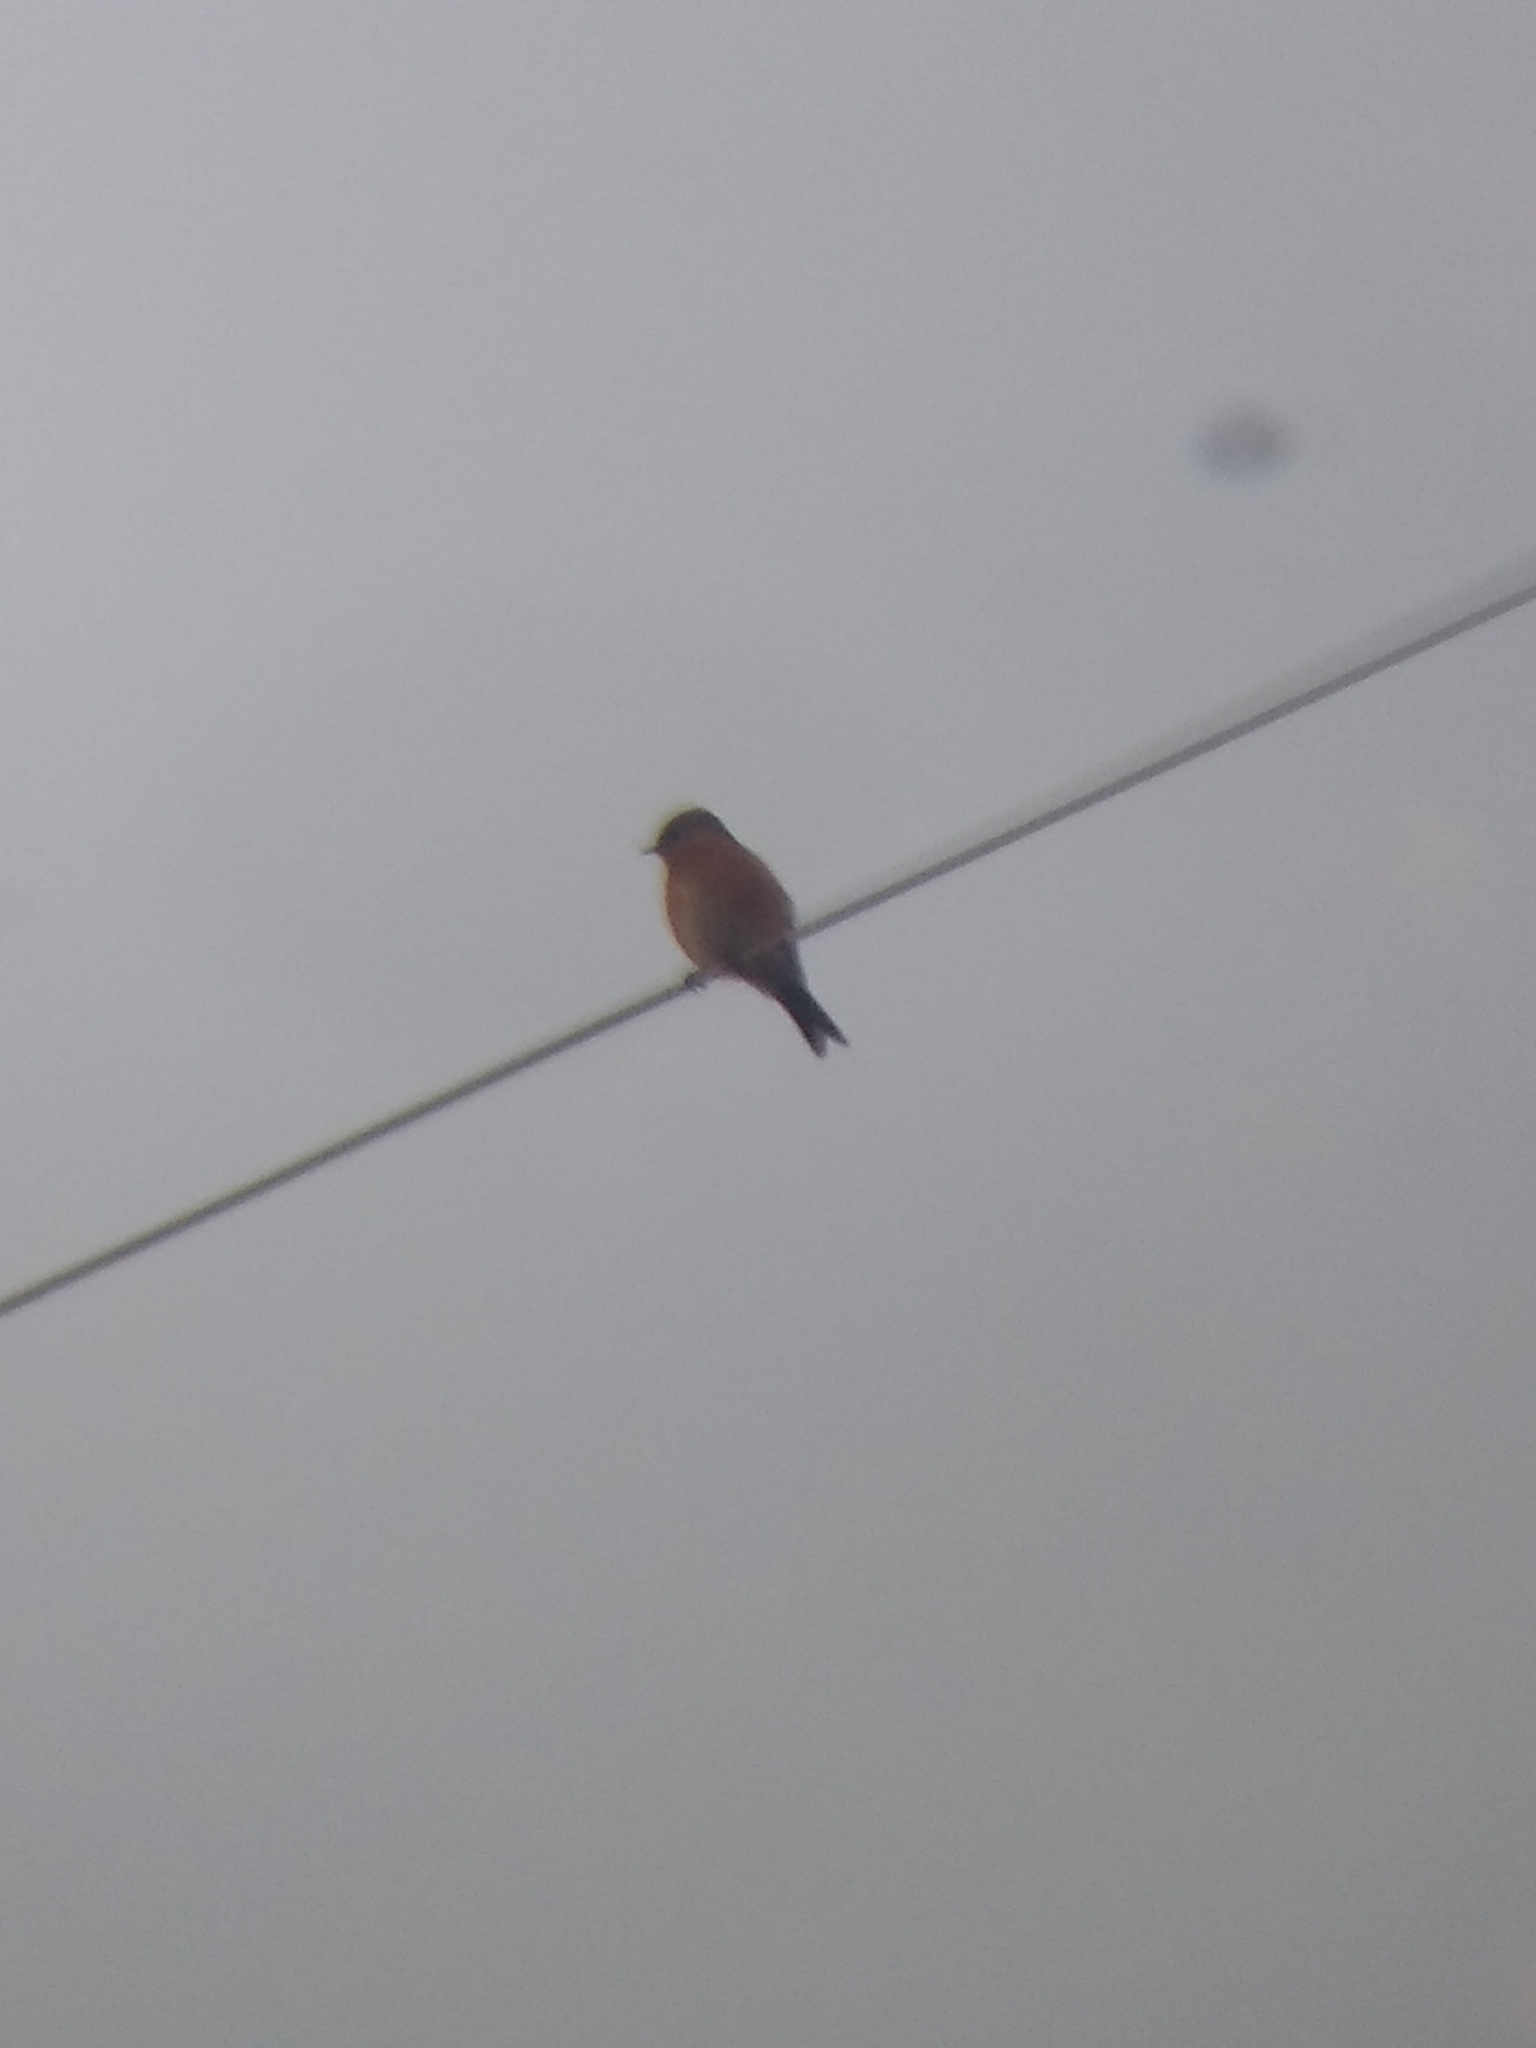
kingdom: Animalia
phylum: Chordata
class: Aves
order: Passeriformes
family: Turdidae
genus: Sialia
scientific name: Sialia mexicana
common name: Western bluebird
